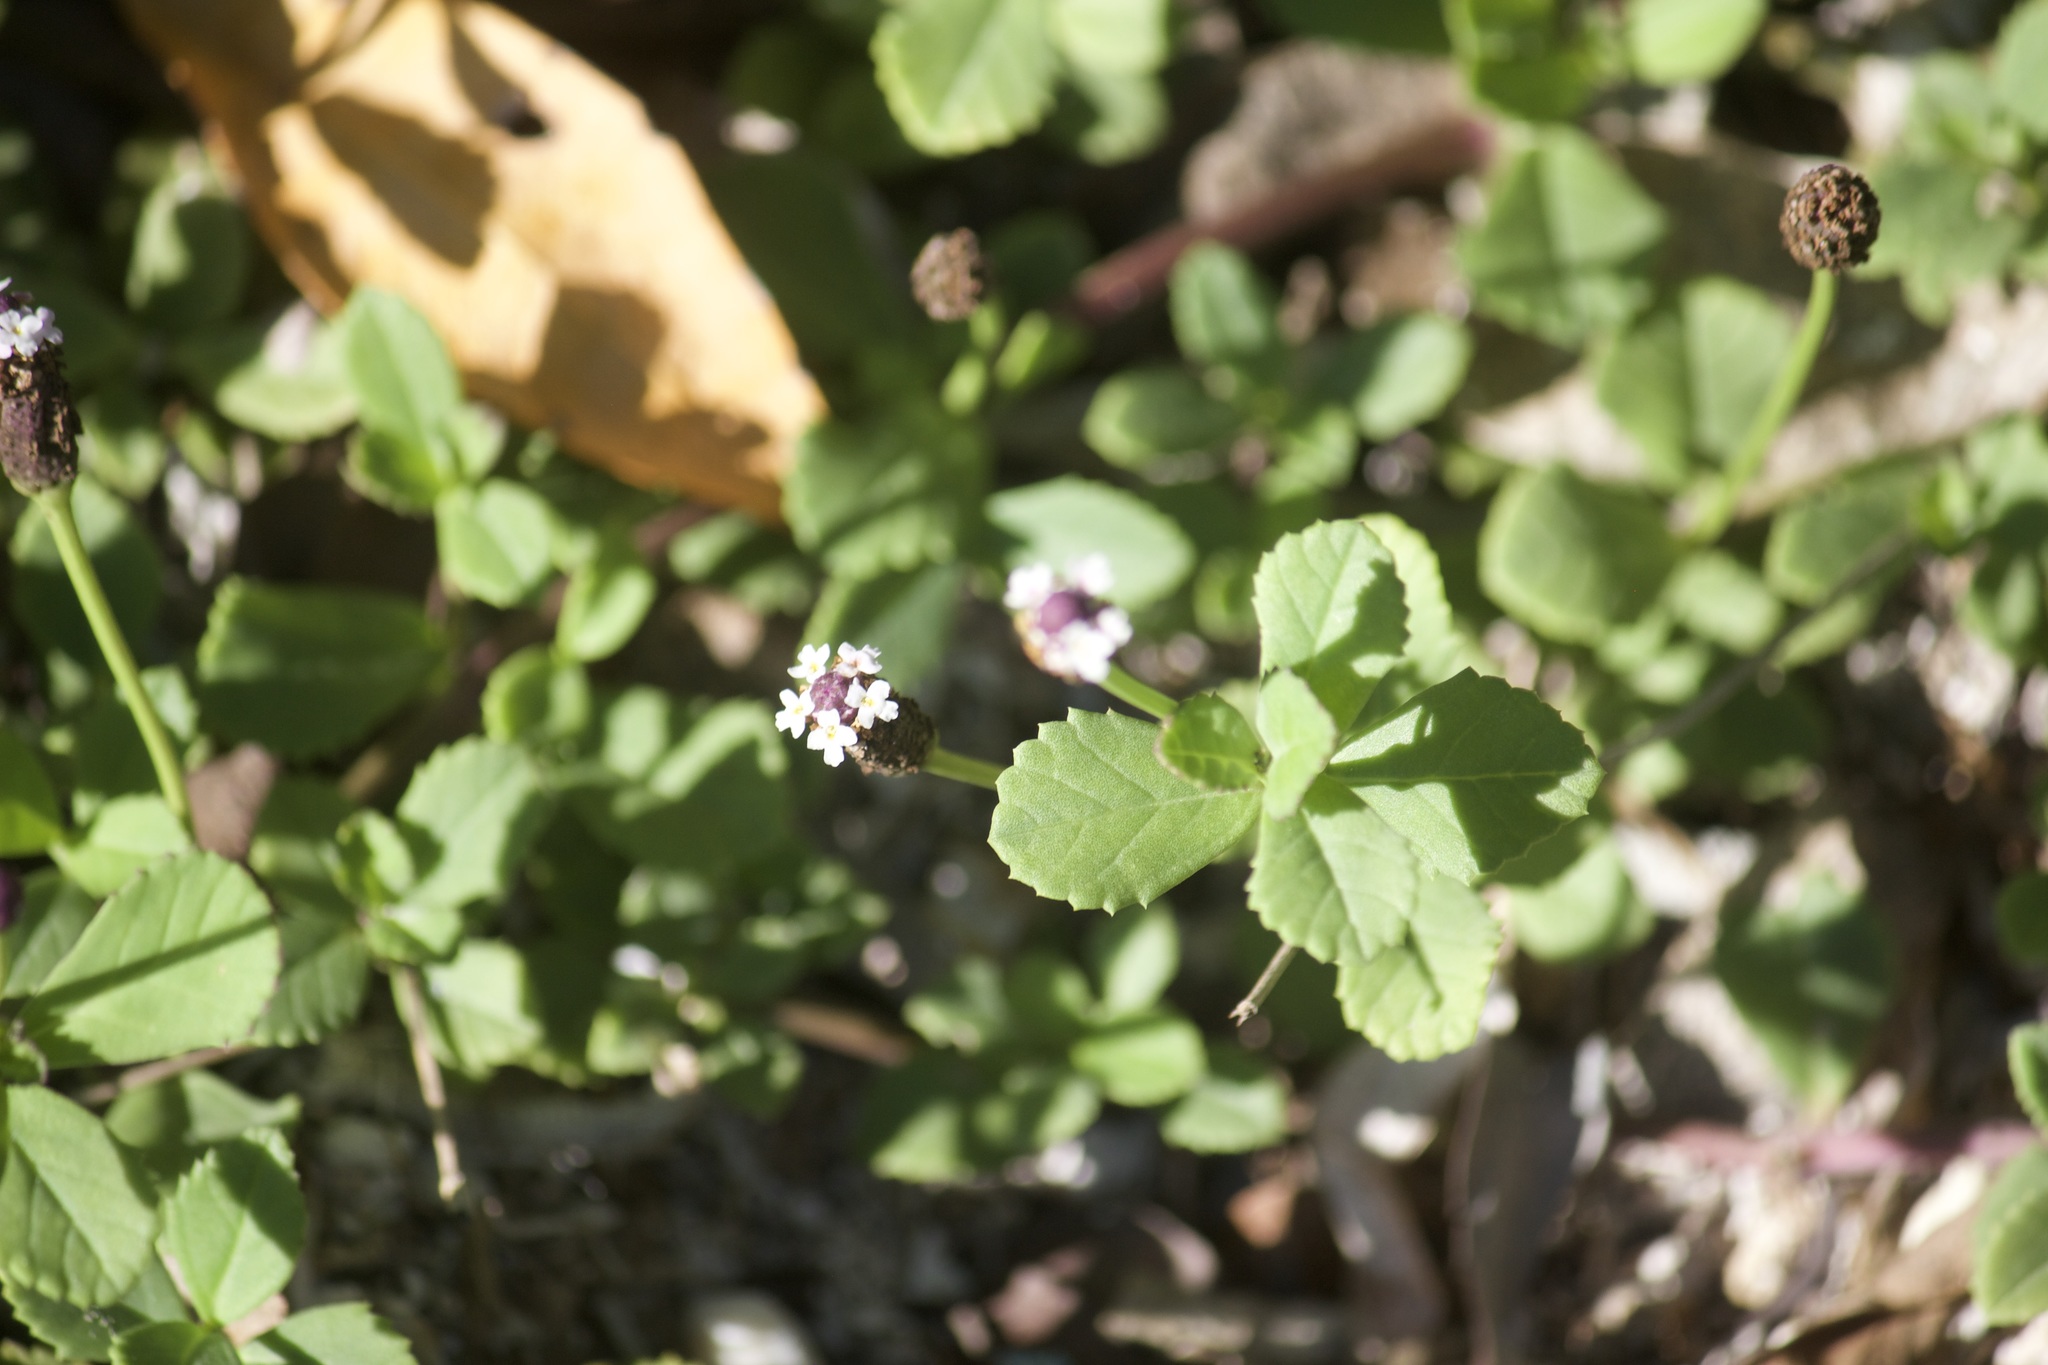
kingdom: Plantae
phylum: Tracheophyta
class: Magnoliopsida
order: Lamiales
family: Verbenaceae
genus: Phyla
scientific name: Phyla nodiflora
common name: Frogfruit
